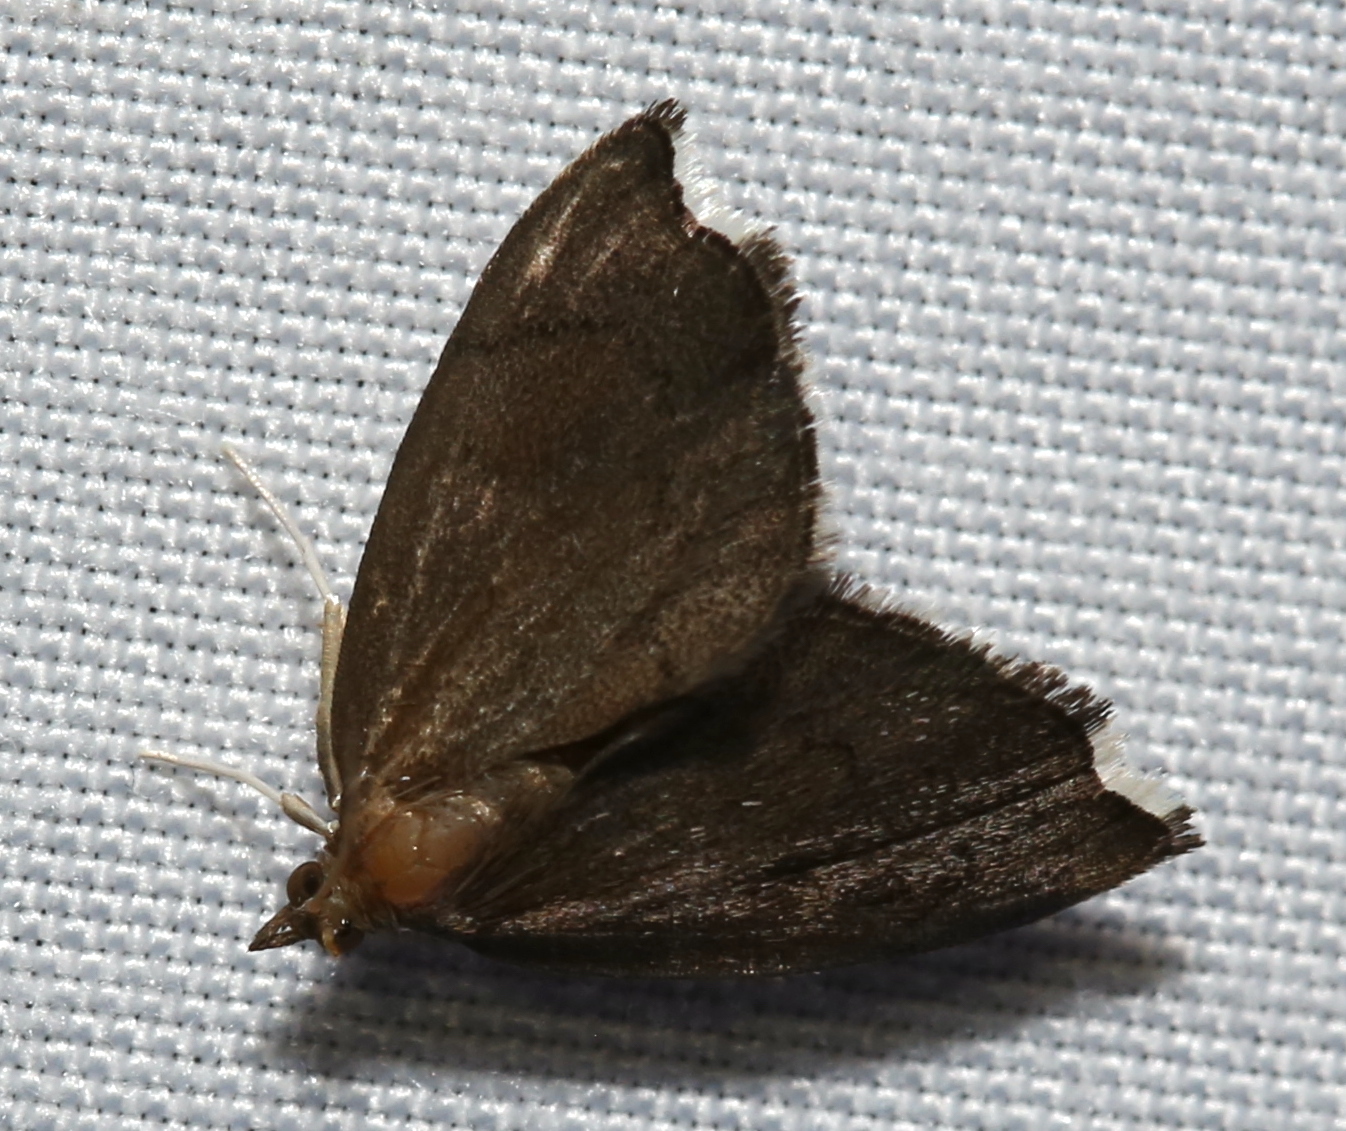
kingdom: Animalia
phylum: Arthropoda
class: Insecta
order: Lepidoptera
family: Crambidae
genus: Perispasta
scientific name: Perispasta caeculalis
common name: Titian peale's moth
